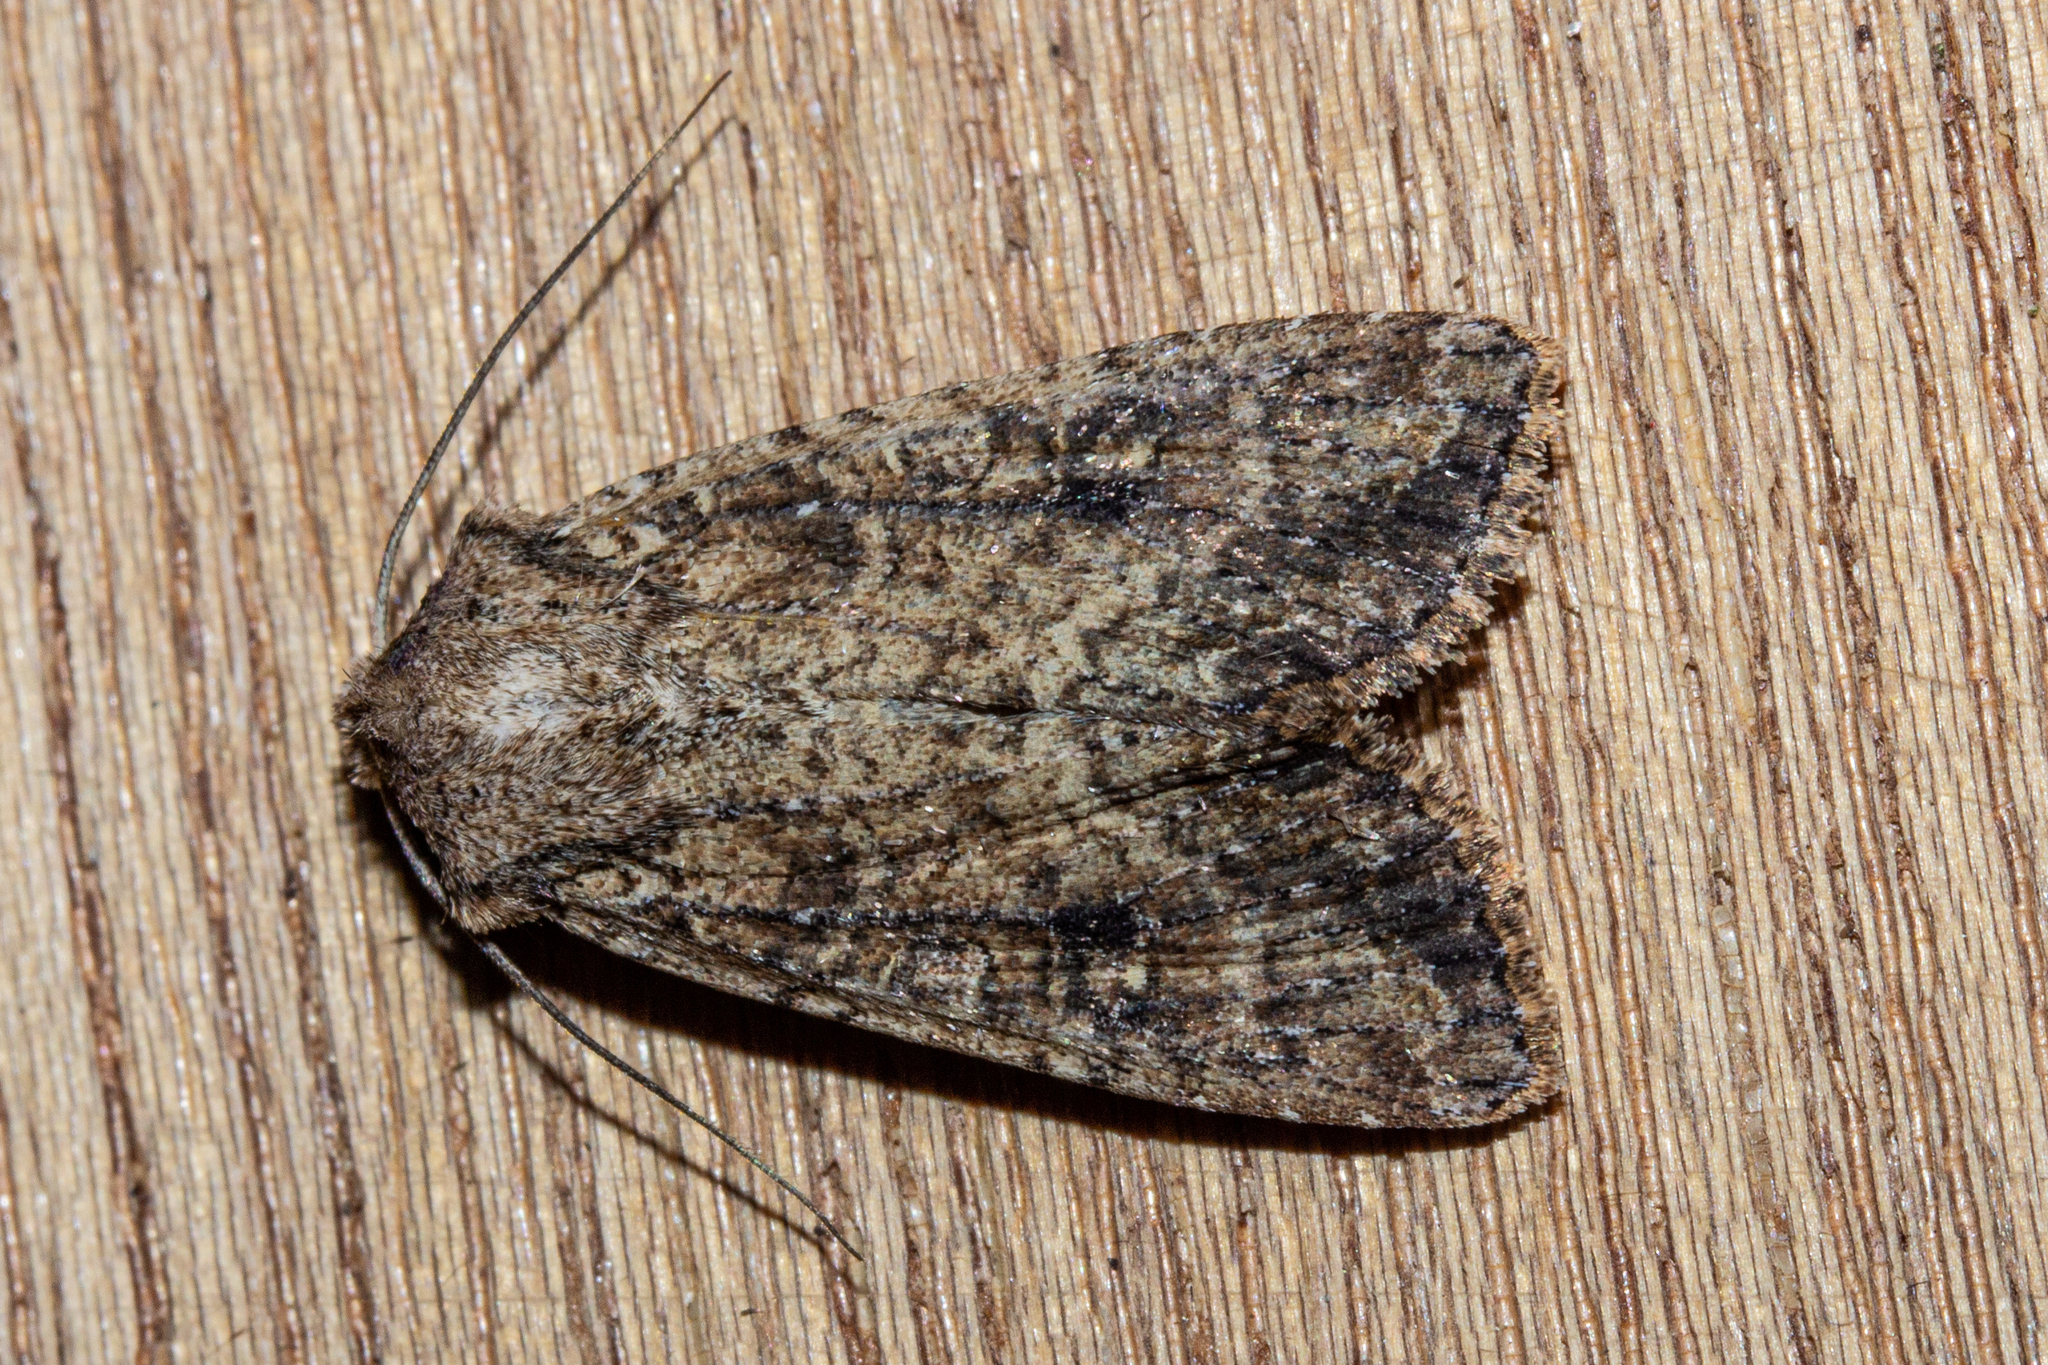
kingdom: Animalia
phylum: Arthropoda
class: Insecta
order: Lepidoptera
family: Noctuidae
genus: Ichneutica
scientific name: Ichneutica morosa
